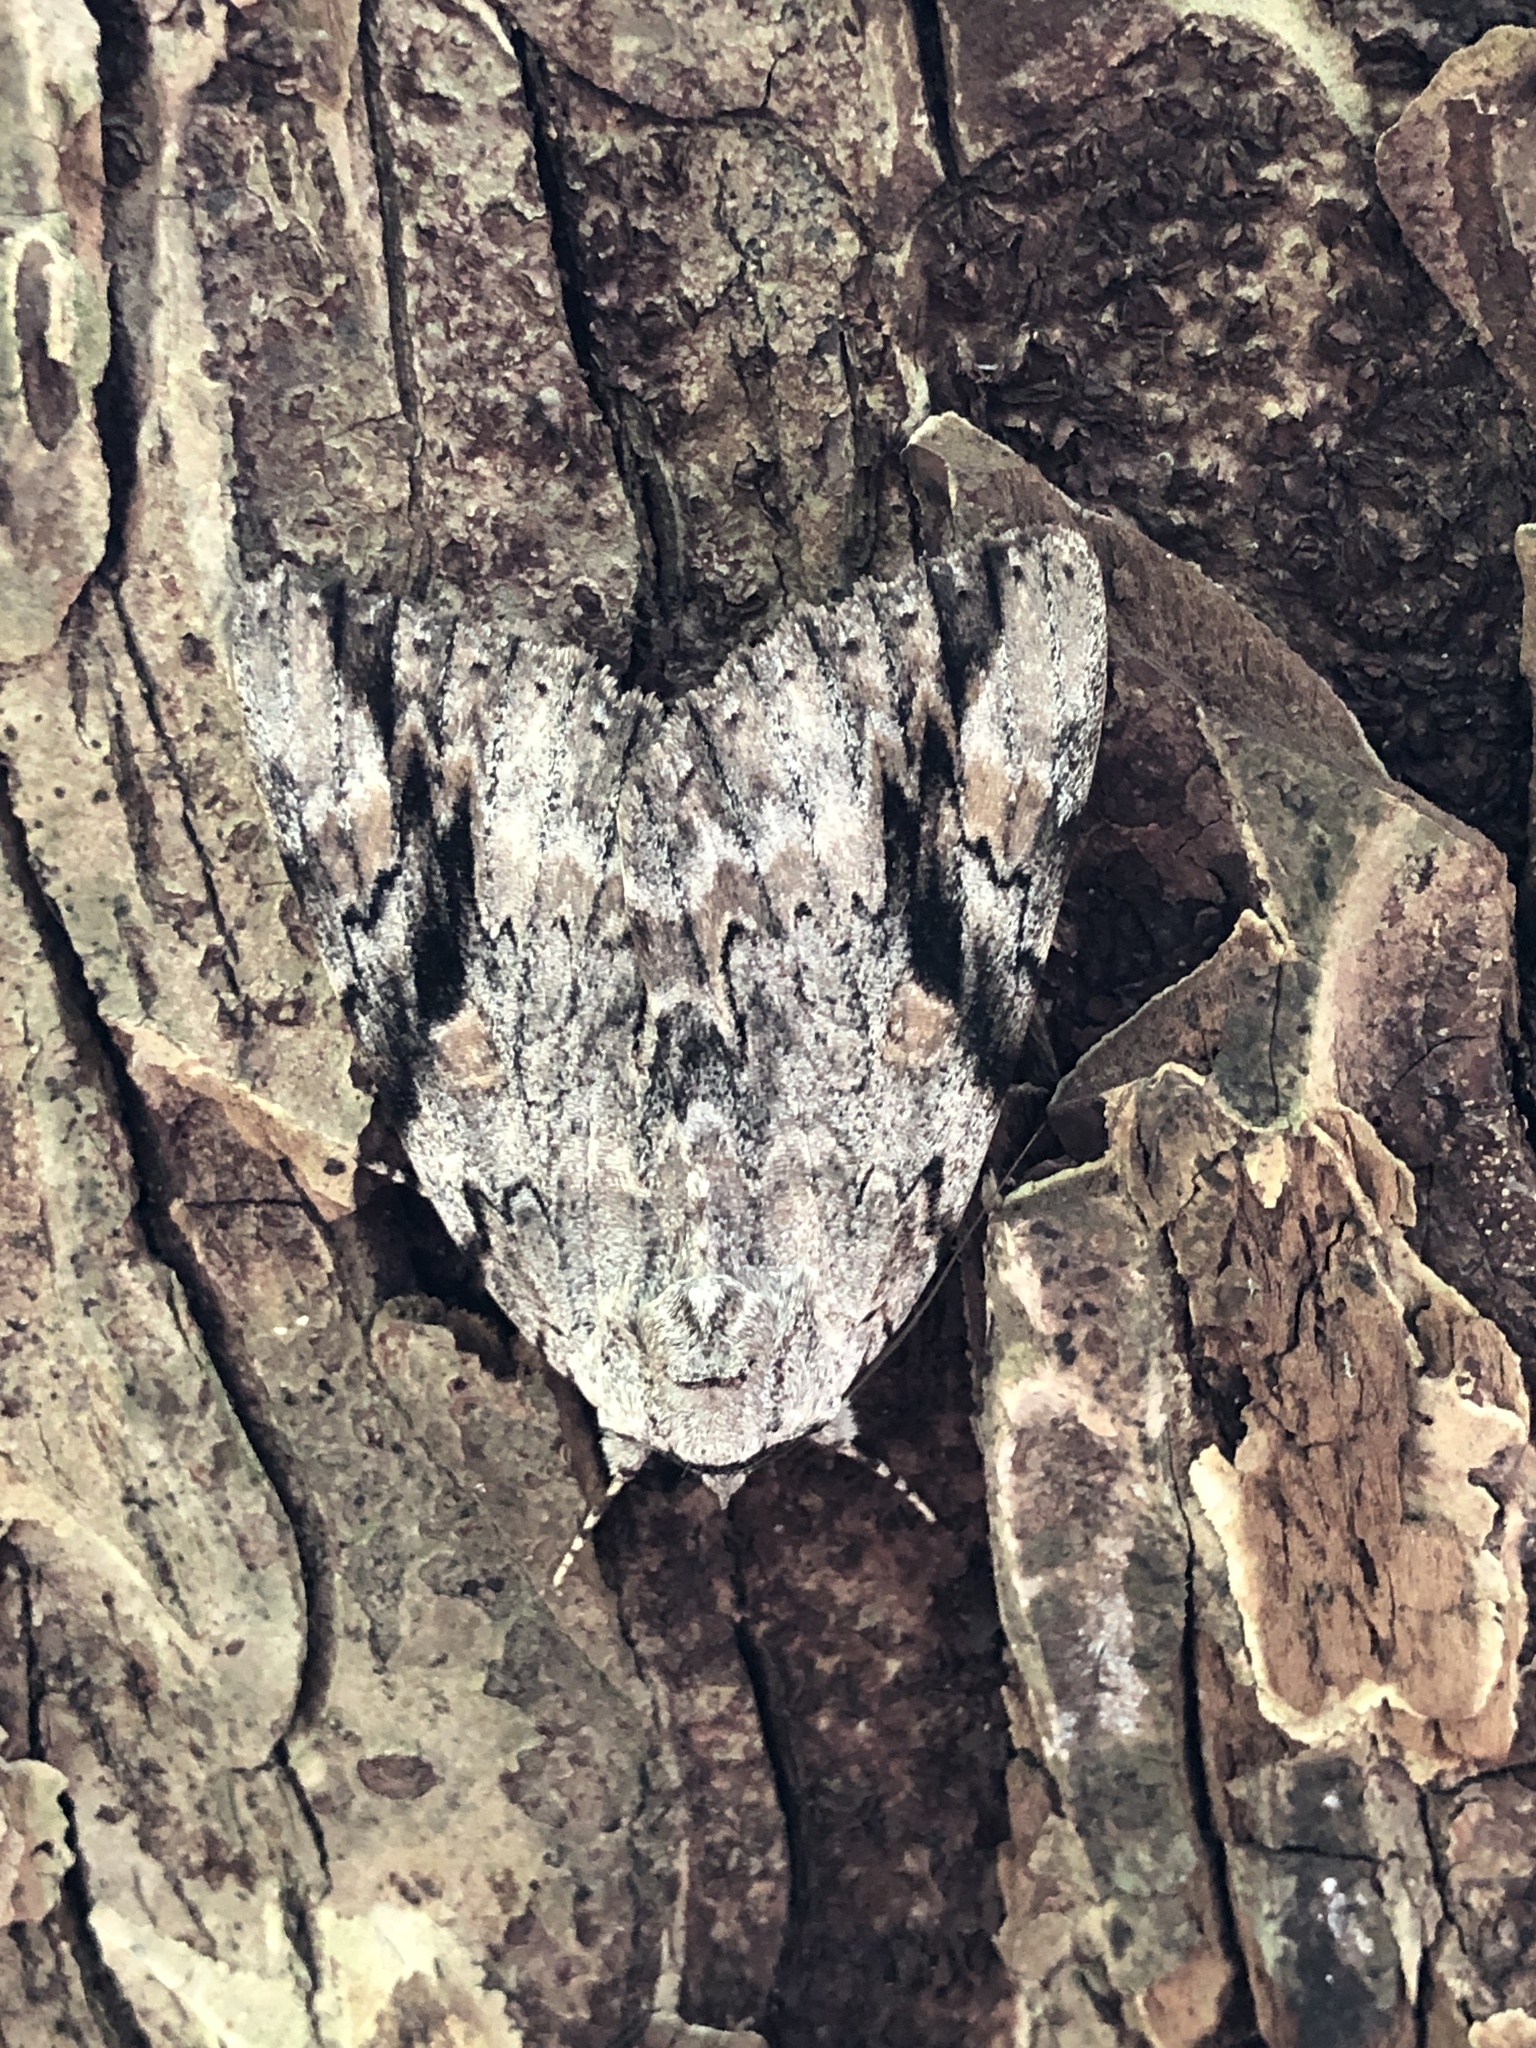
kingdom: Animalia
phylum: Arthropoda
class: Insecta
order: Lepidoptera
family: Erebidae
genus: Catocala
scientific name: Catocala maestosa
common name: Sad underwing
